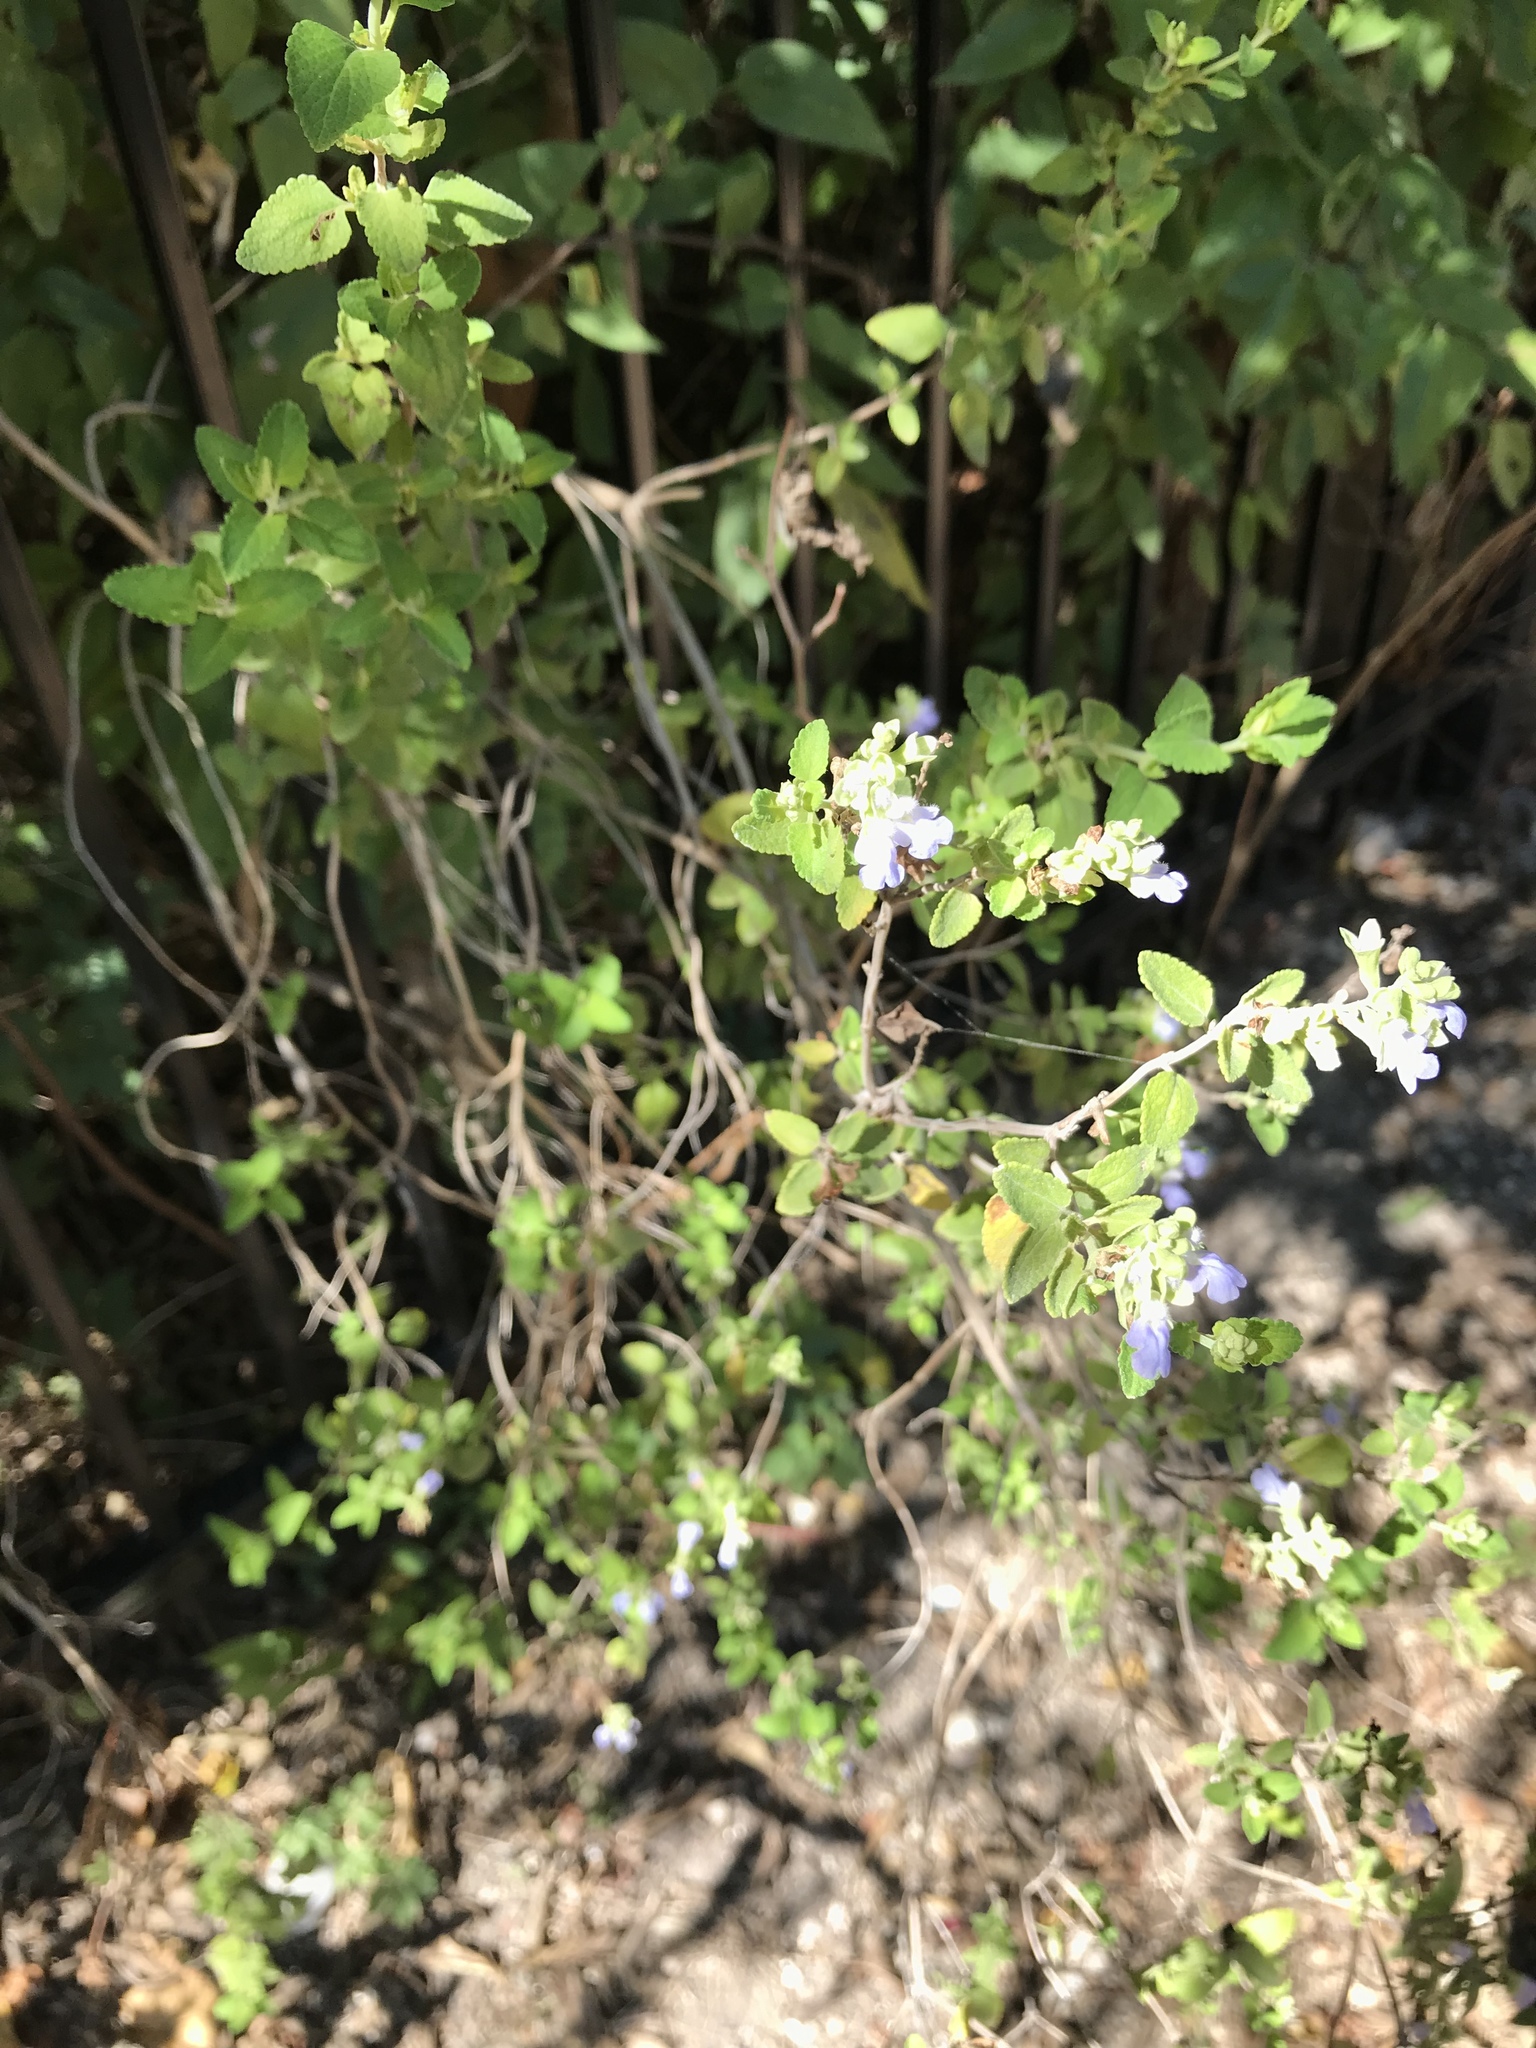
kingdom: Plantae
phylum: Tracheophyta
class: Magnoliopsida
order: Lamiales
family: Lamiaceae
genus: Salvia
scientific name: Salvia ballotiflora
